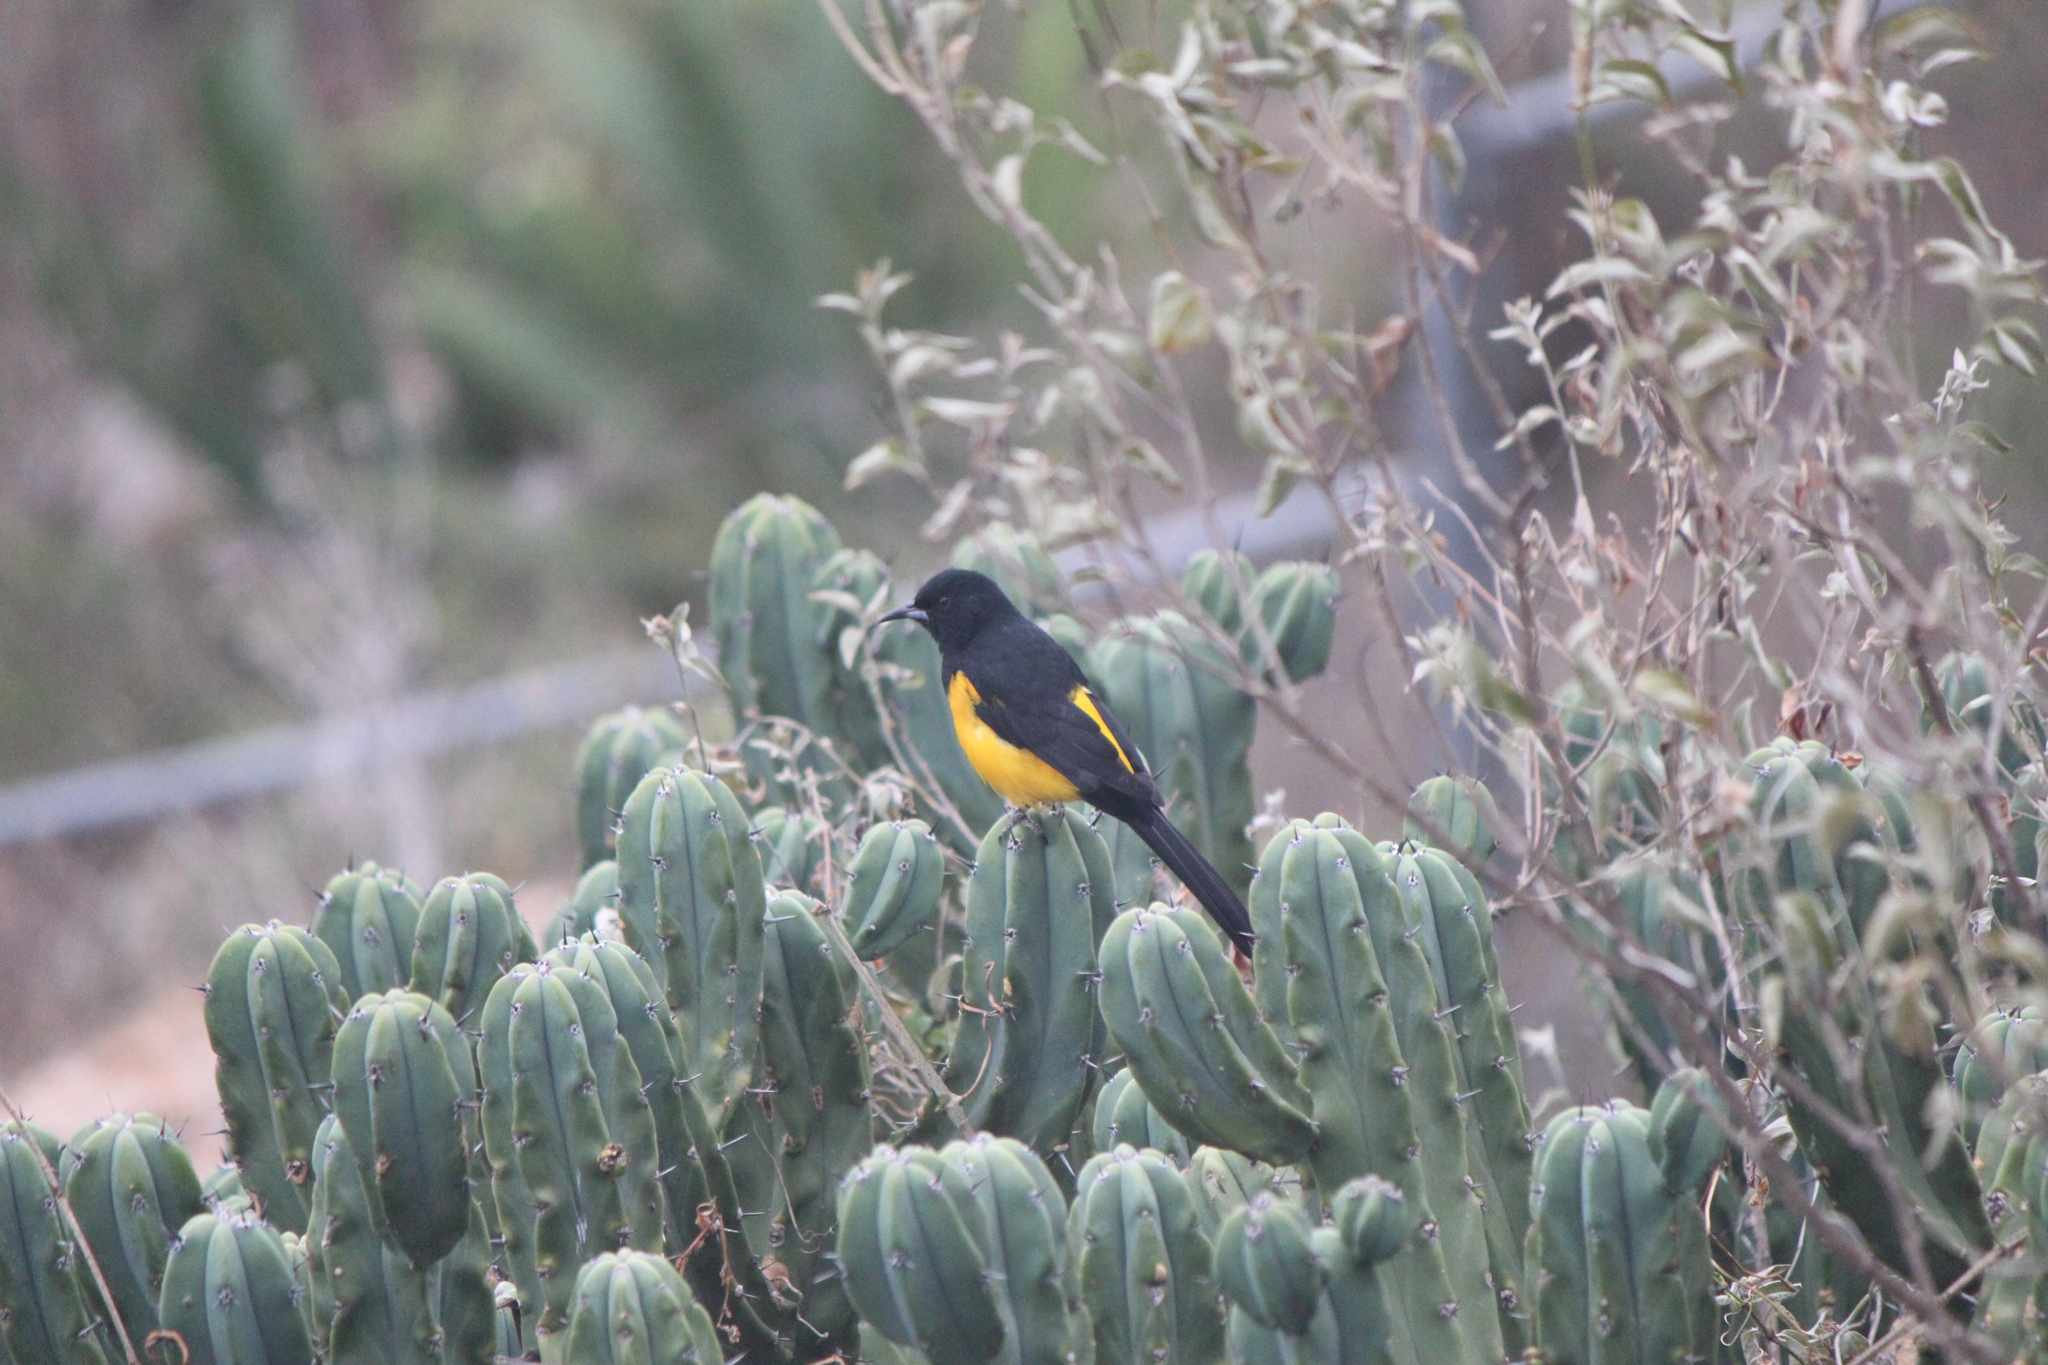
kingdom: Animalia
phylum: Chordata
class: Aves
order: Passeriformes
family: Icteridae
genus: Icterus
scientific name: Icterus wagleri
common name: Black-vented oriole
